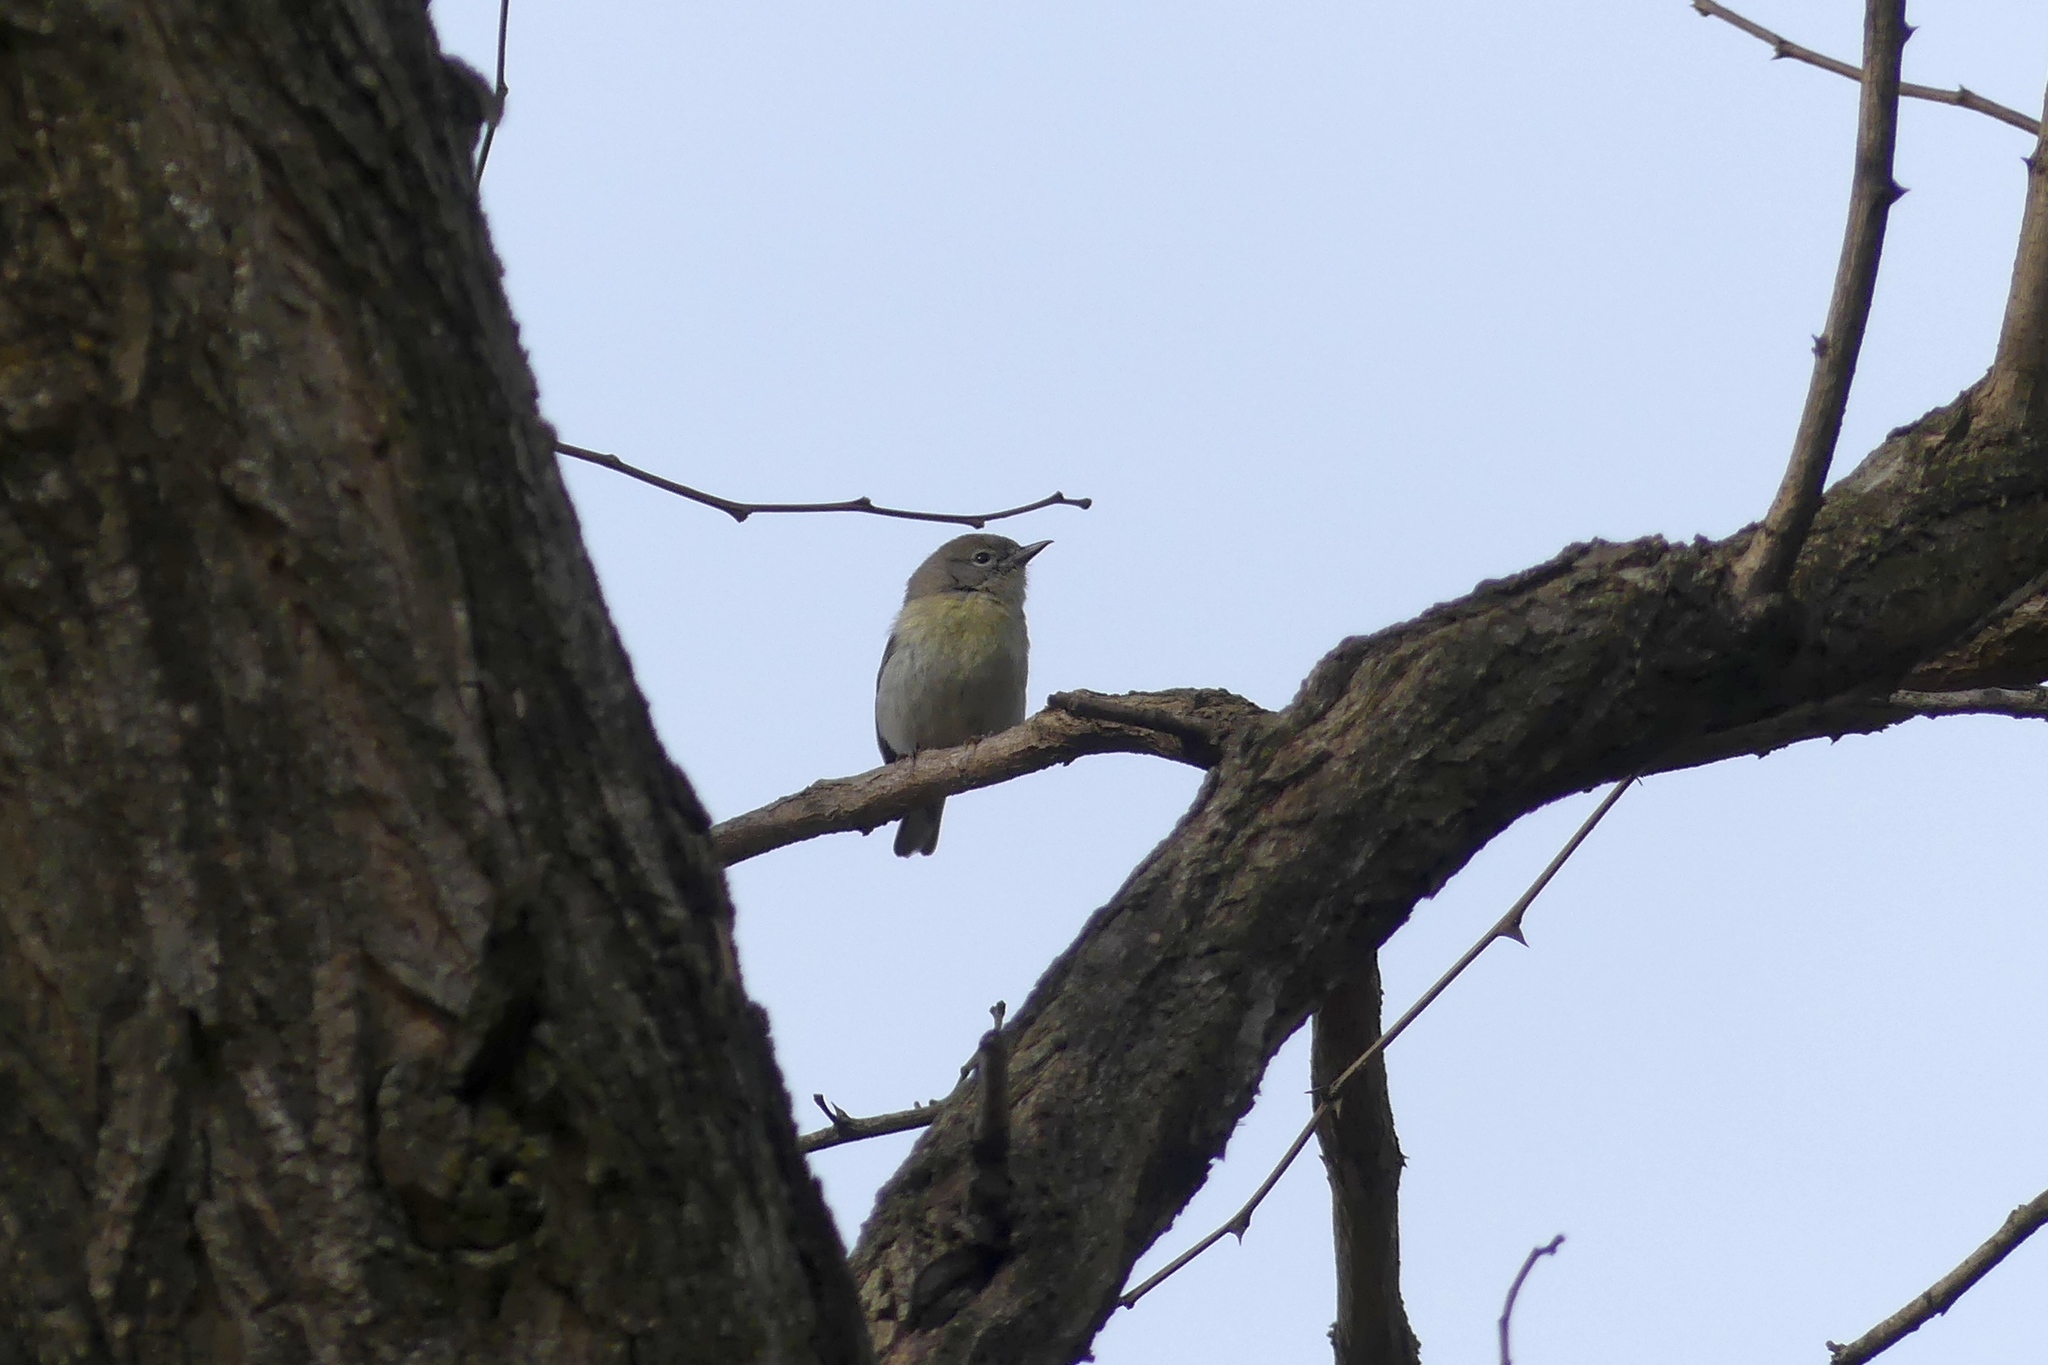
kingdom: Animalia
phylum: Chordata
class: Aves
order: Passeriformes
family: Parulidae
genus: Setophaga
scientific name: Setophaga pinus
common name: Pine warbler
